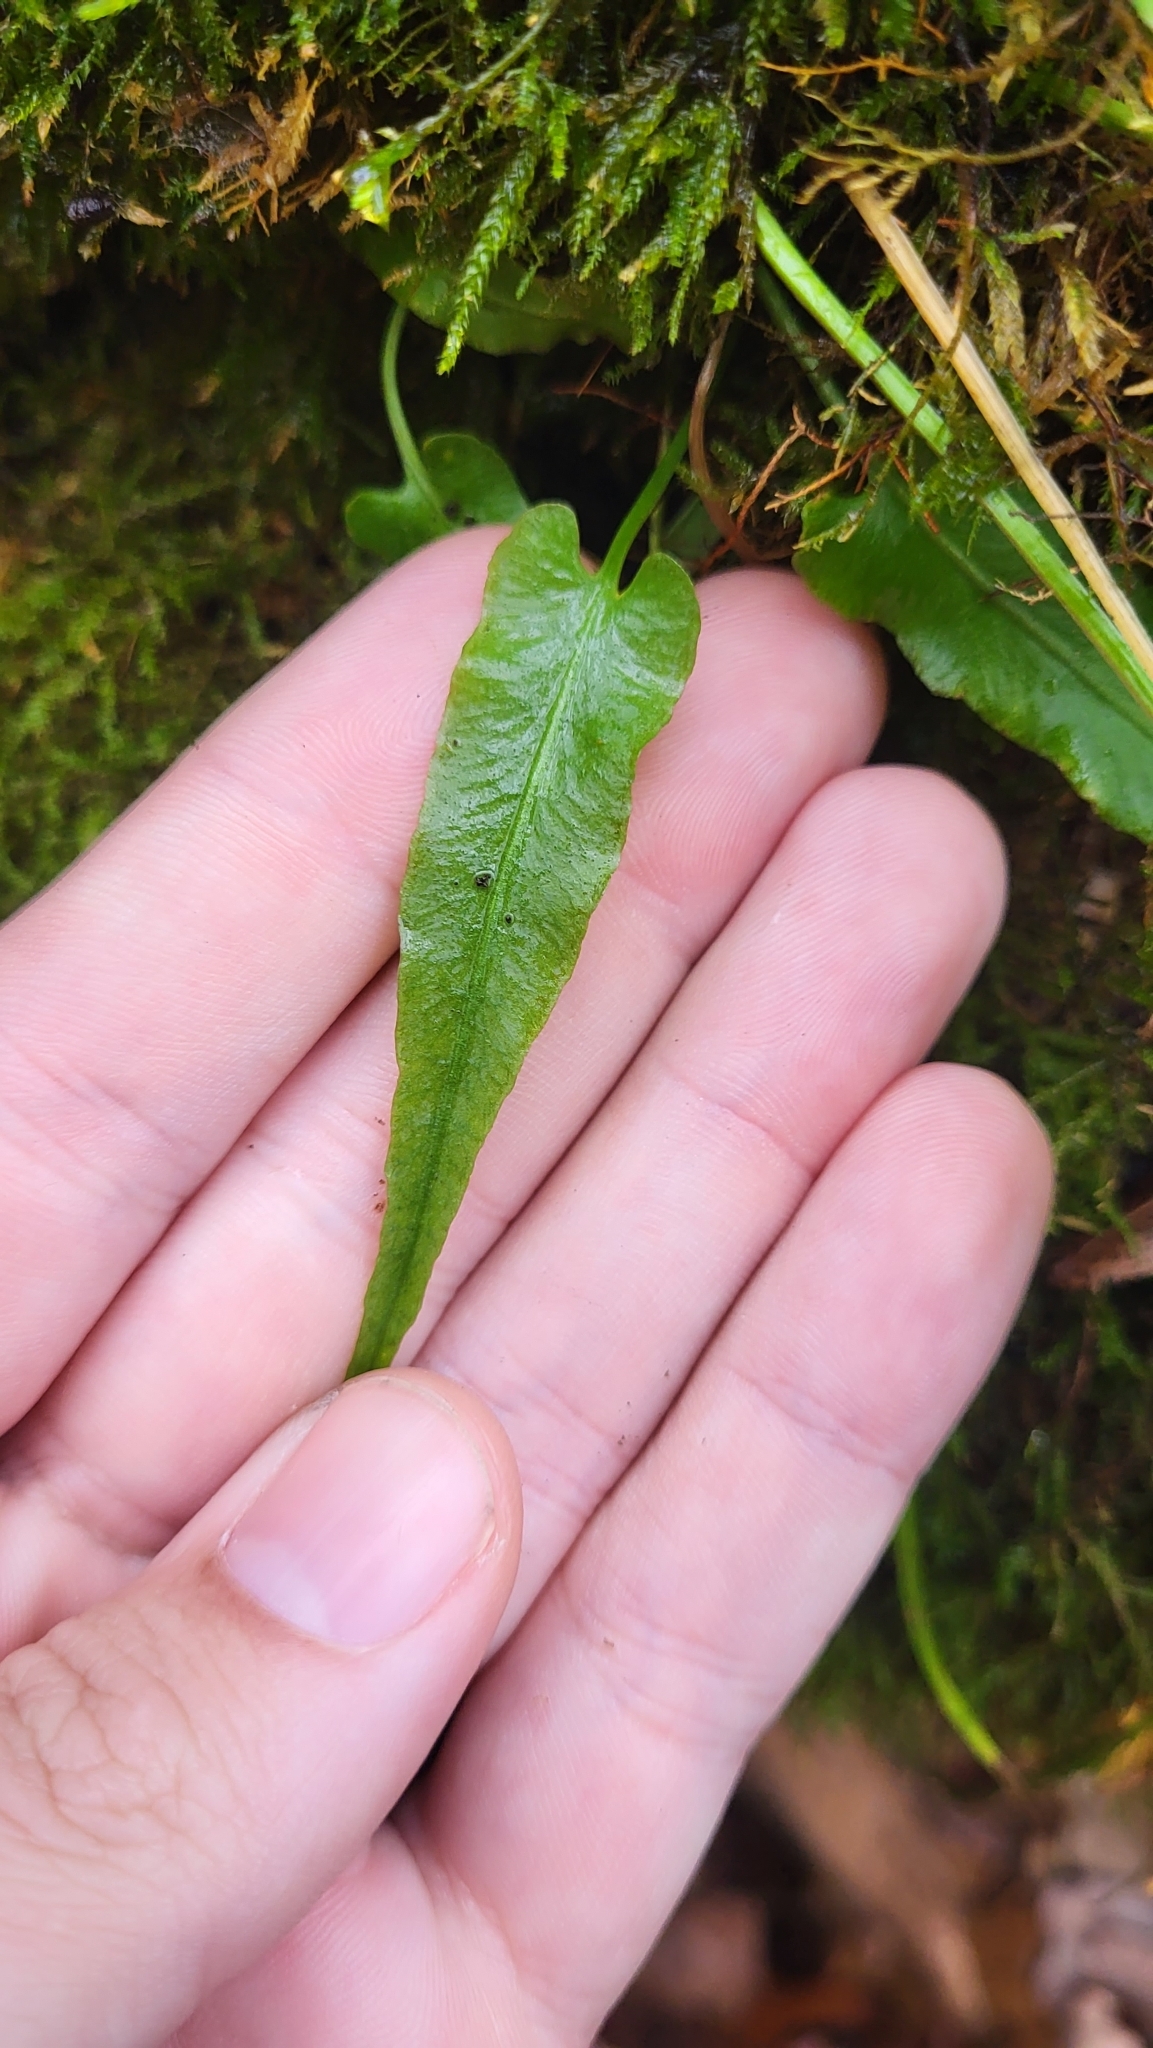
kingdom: Plantae
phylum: Tracheophyta
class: Polypodiopsida
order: Polypodiales
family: Aspleniaceae
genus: Asplenium
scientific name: Asplenium rhizophyllum
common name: Walking fern
